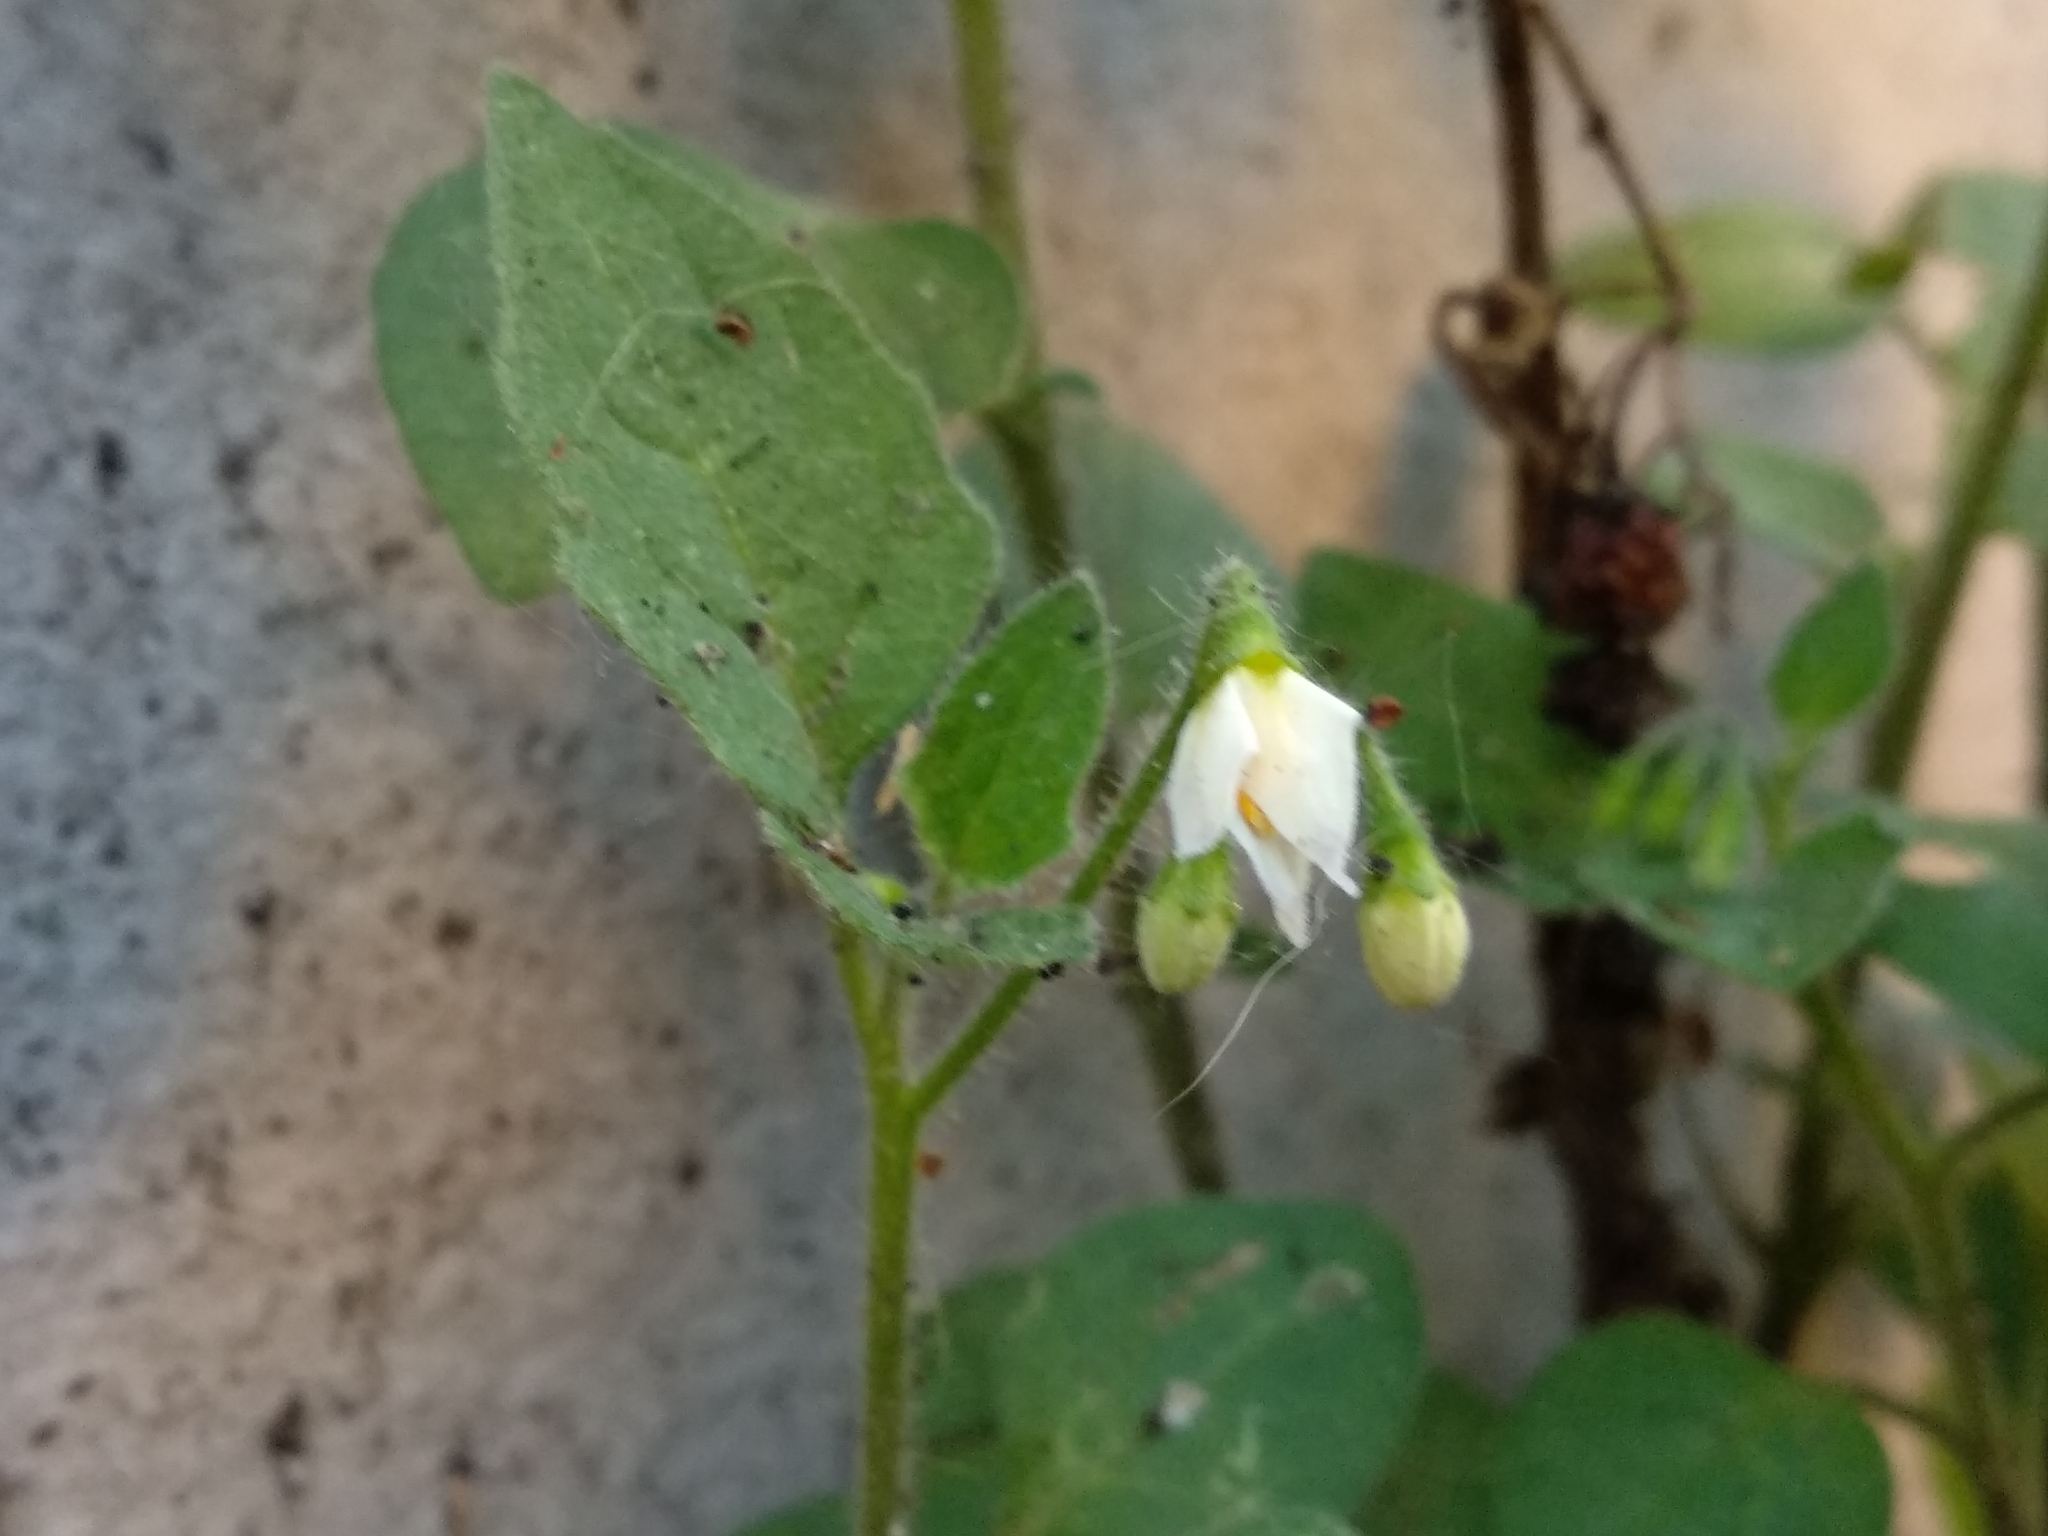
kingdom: Plantae
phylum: Tracheophyta
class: Magnoliopsida
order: Solanales
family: Solanaceae
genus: Solanum
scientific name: Solanum nigrum
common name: Black nightshade
